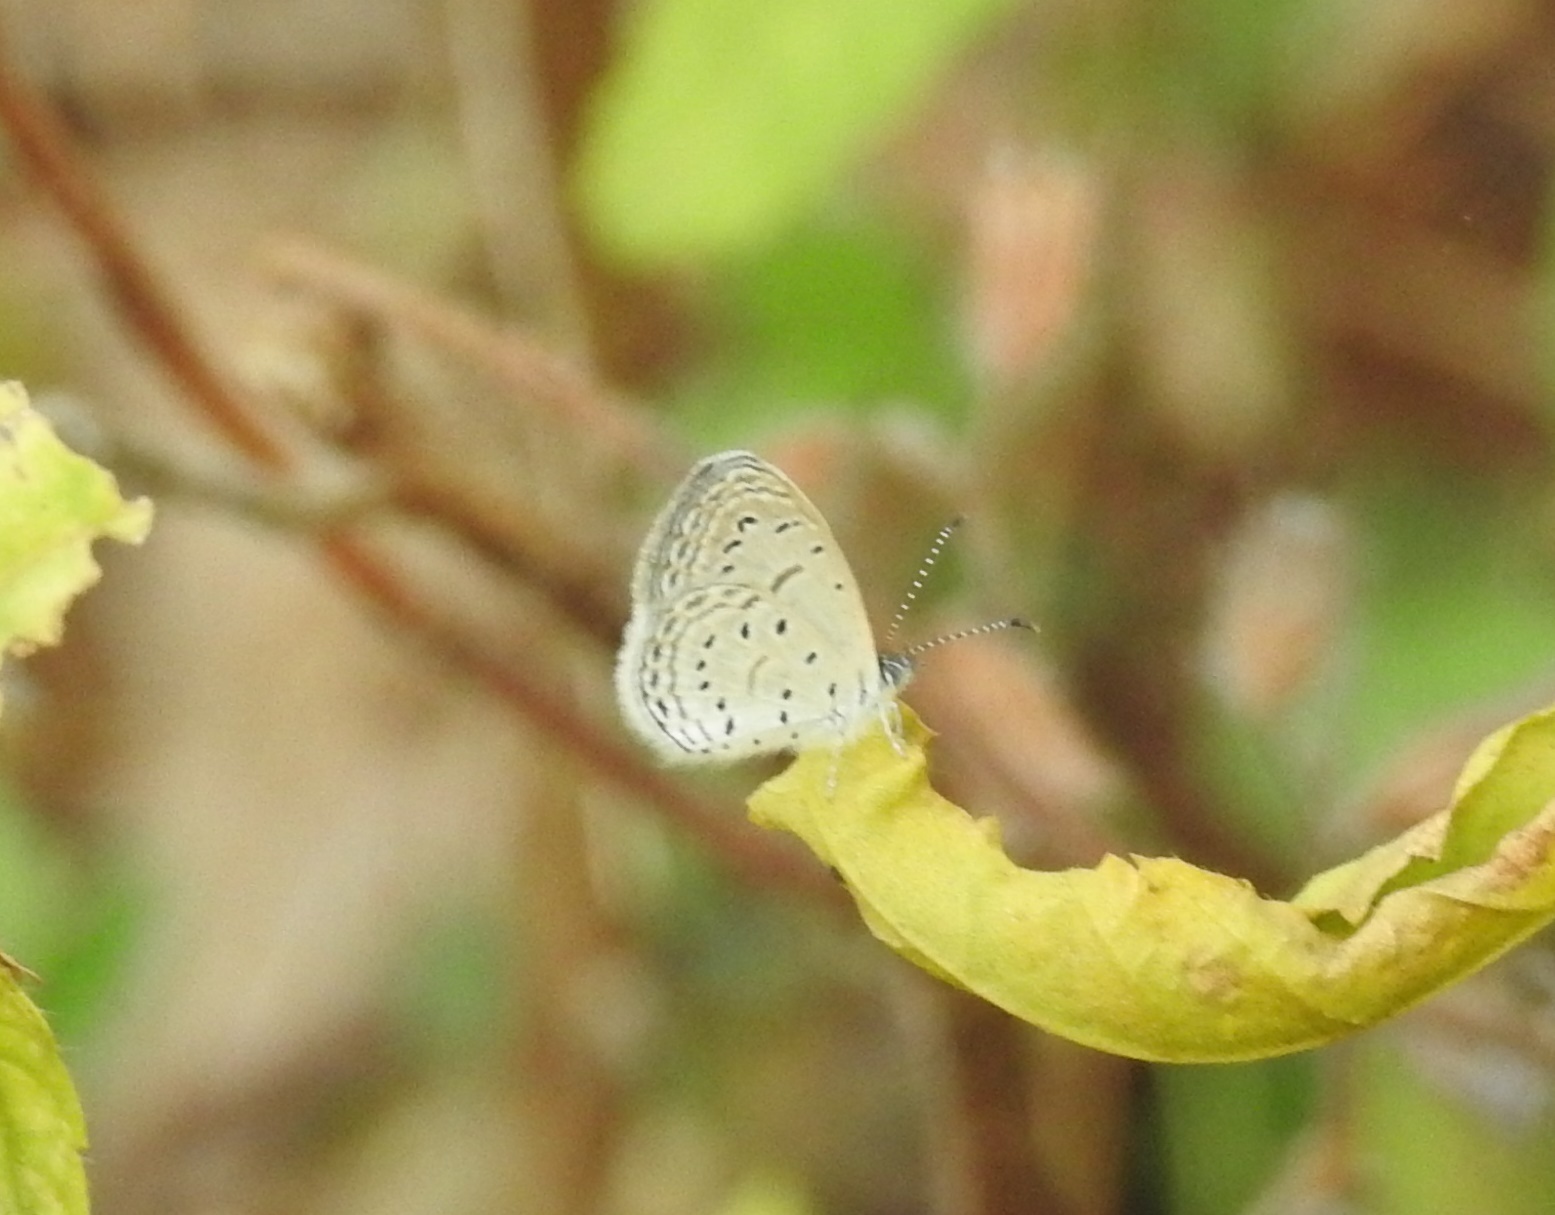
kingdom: Animalia
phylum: Arthropoda
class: Insecta
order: Lepidoptera
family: Lycaenidae
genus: Zizula
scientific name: Zizula hylax
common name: Gaika blue
